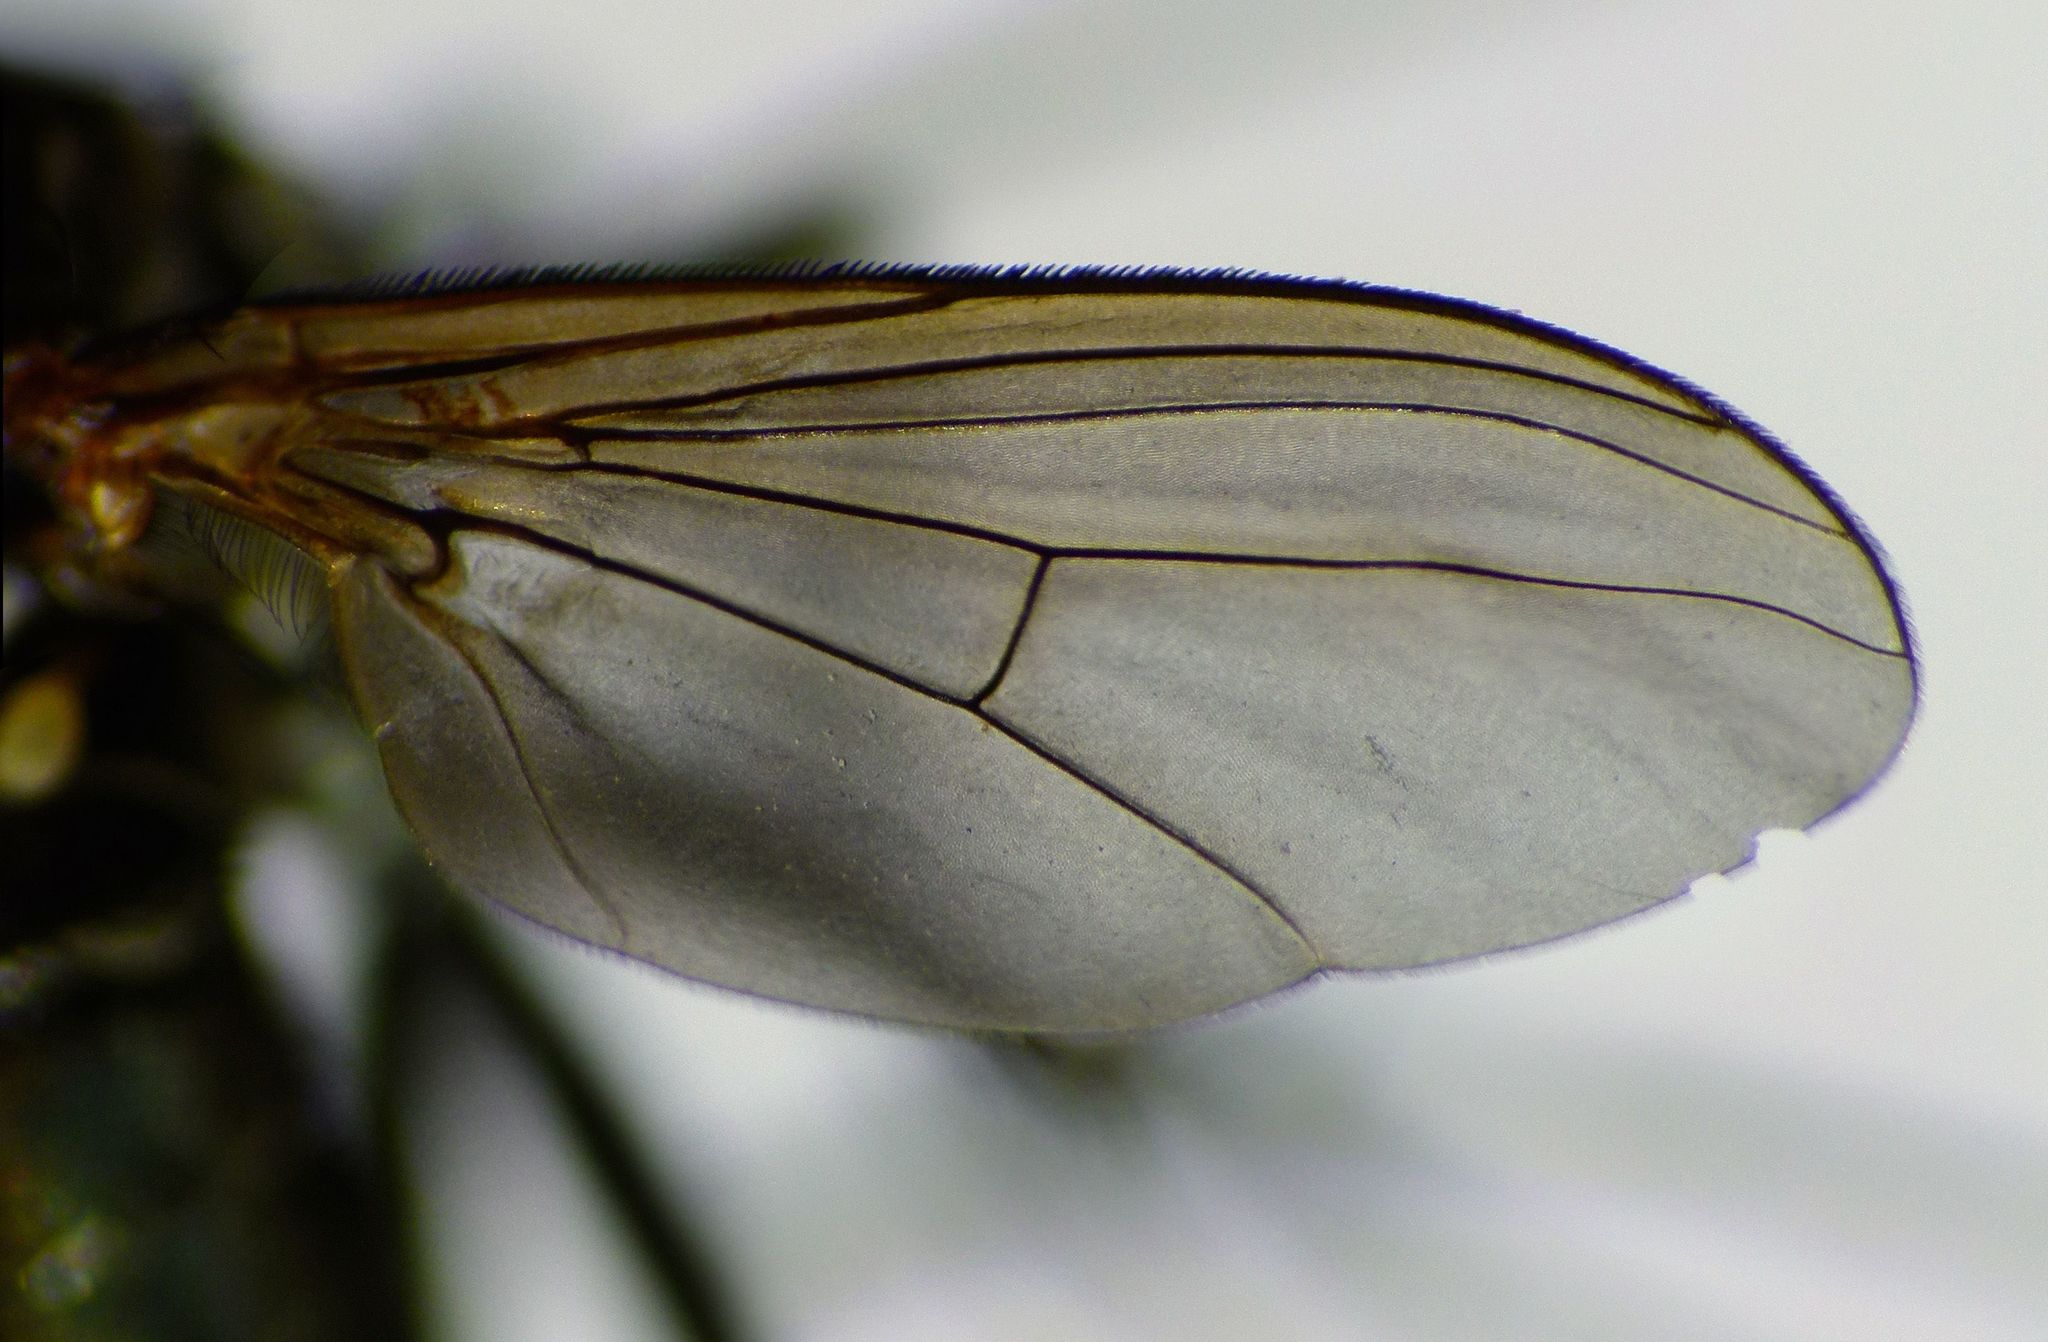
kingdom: Animalia
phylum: Arthropoda
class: Insecta
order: Diptera
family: Dolichopodidae
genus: Ostenia
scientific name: Ostenia robusta
